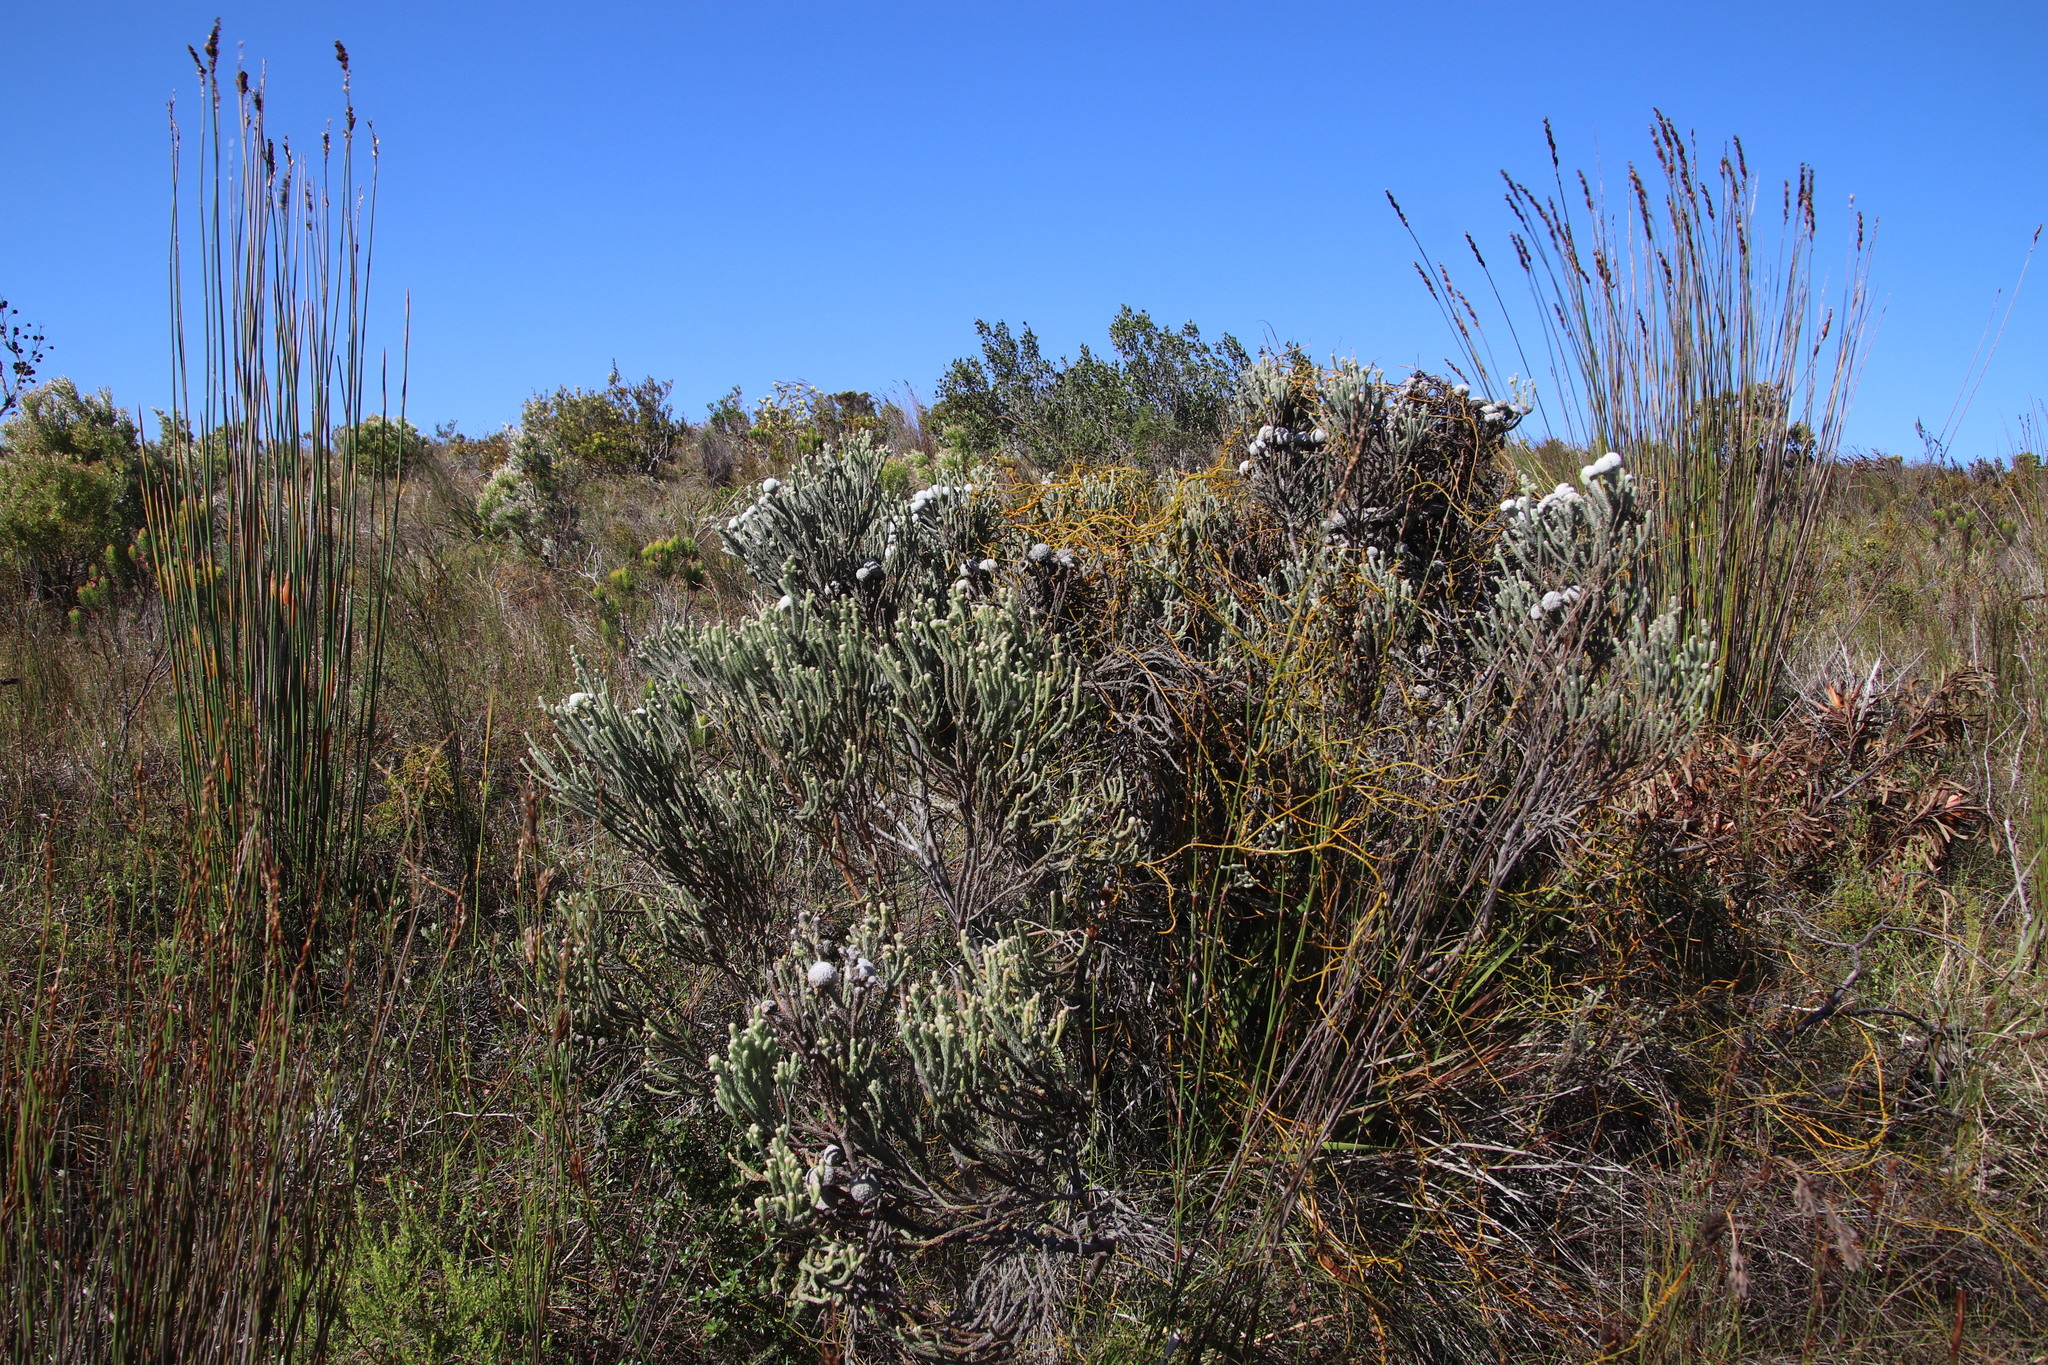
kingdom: Plantae
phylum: Tracheophyta
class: Magnoliopsida
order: Bruniales
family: Bruniaceae
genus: Brunia
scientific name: Brunia laevis
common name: Silver brunia
